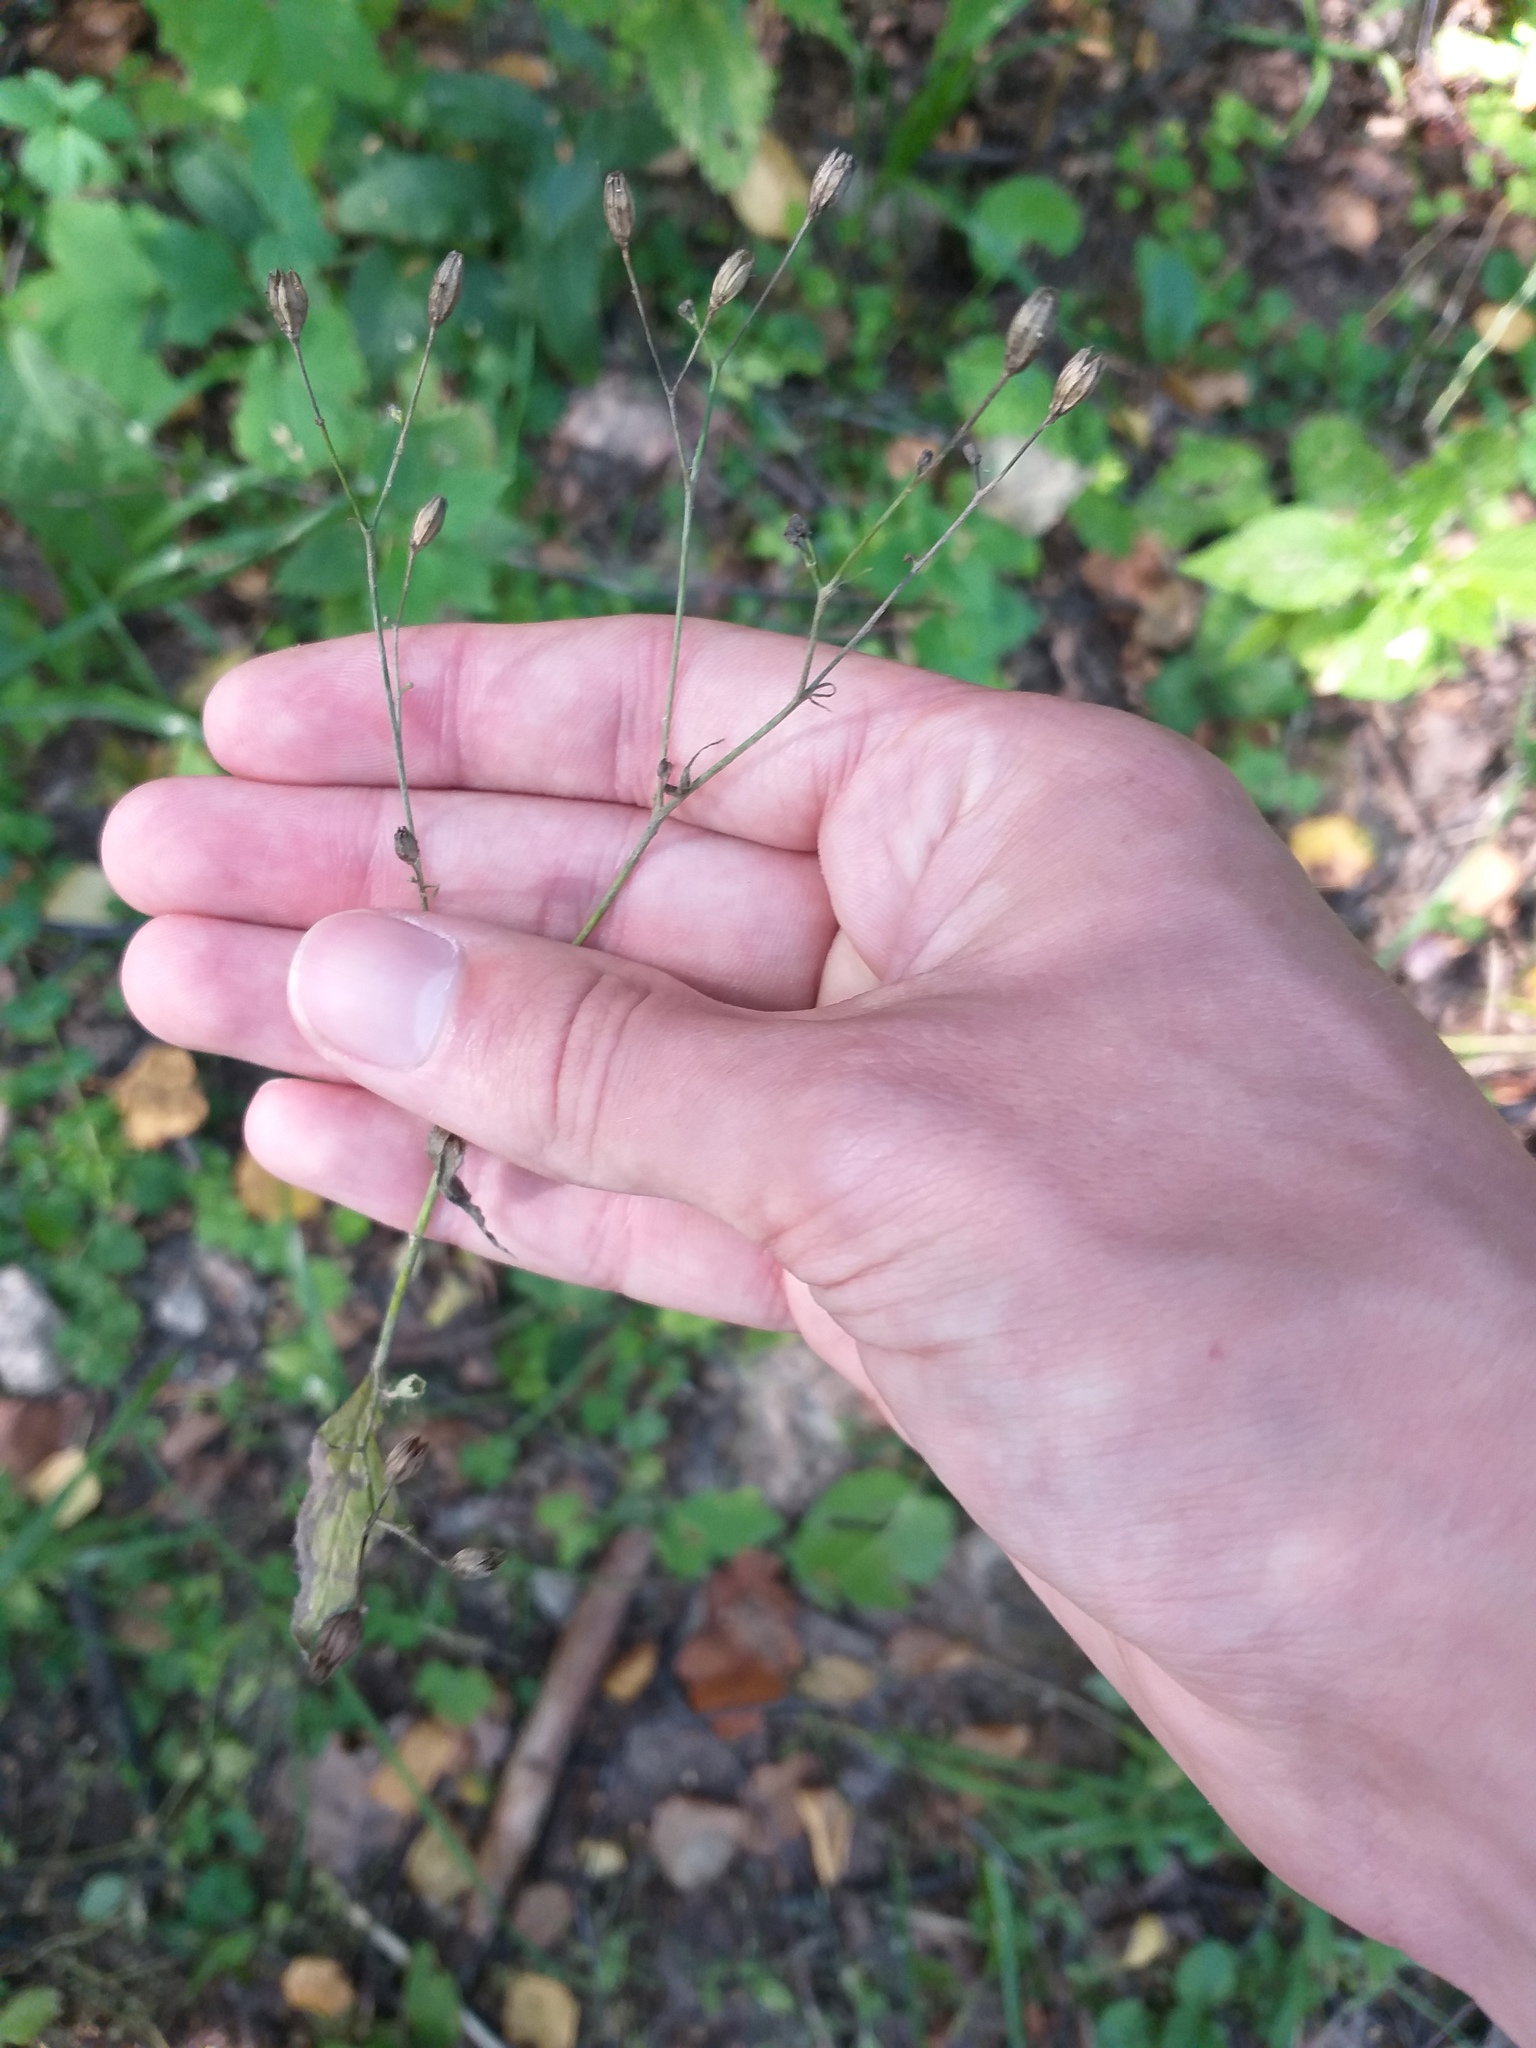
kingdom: Plantae
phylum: Tracheophyta
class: Magnoliopsida
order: Asterales
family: Asteraceae
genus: Lapsana
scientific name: Lapsana communis
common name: Nipplewort
